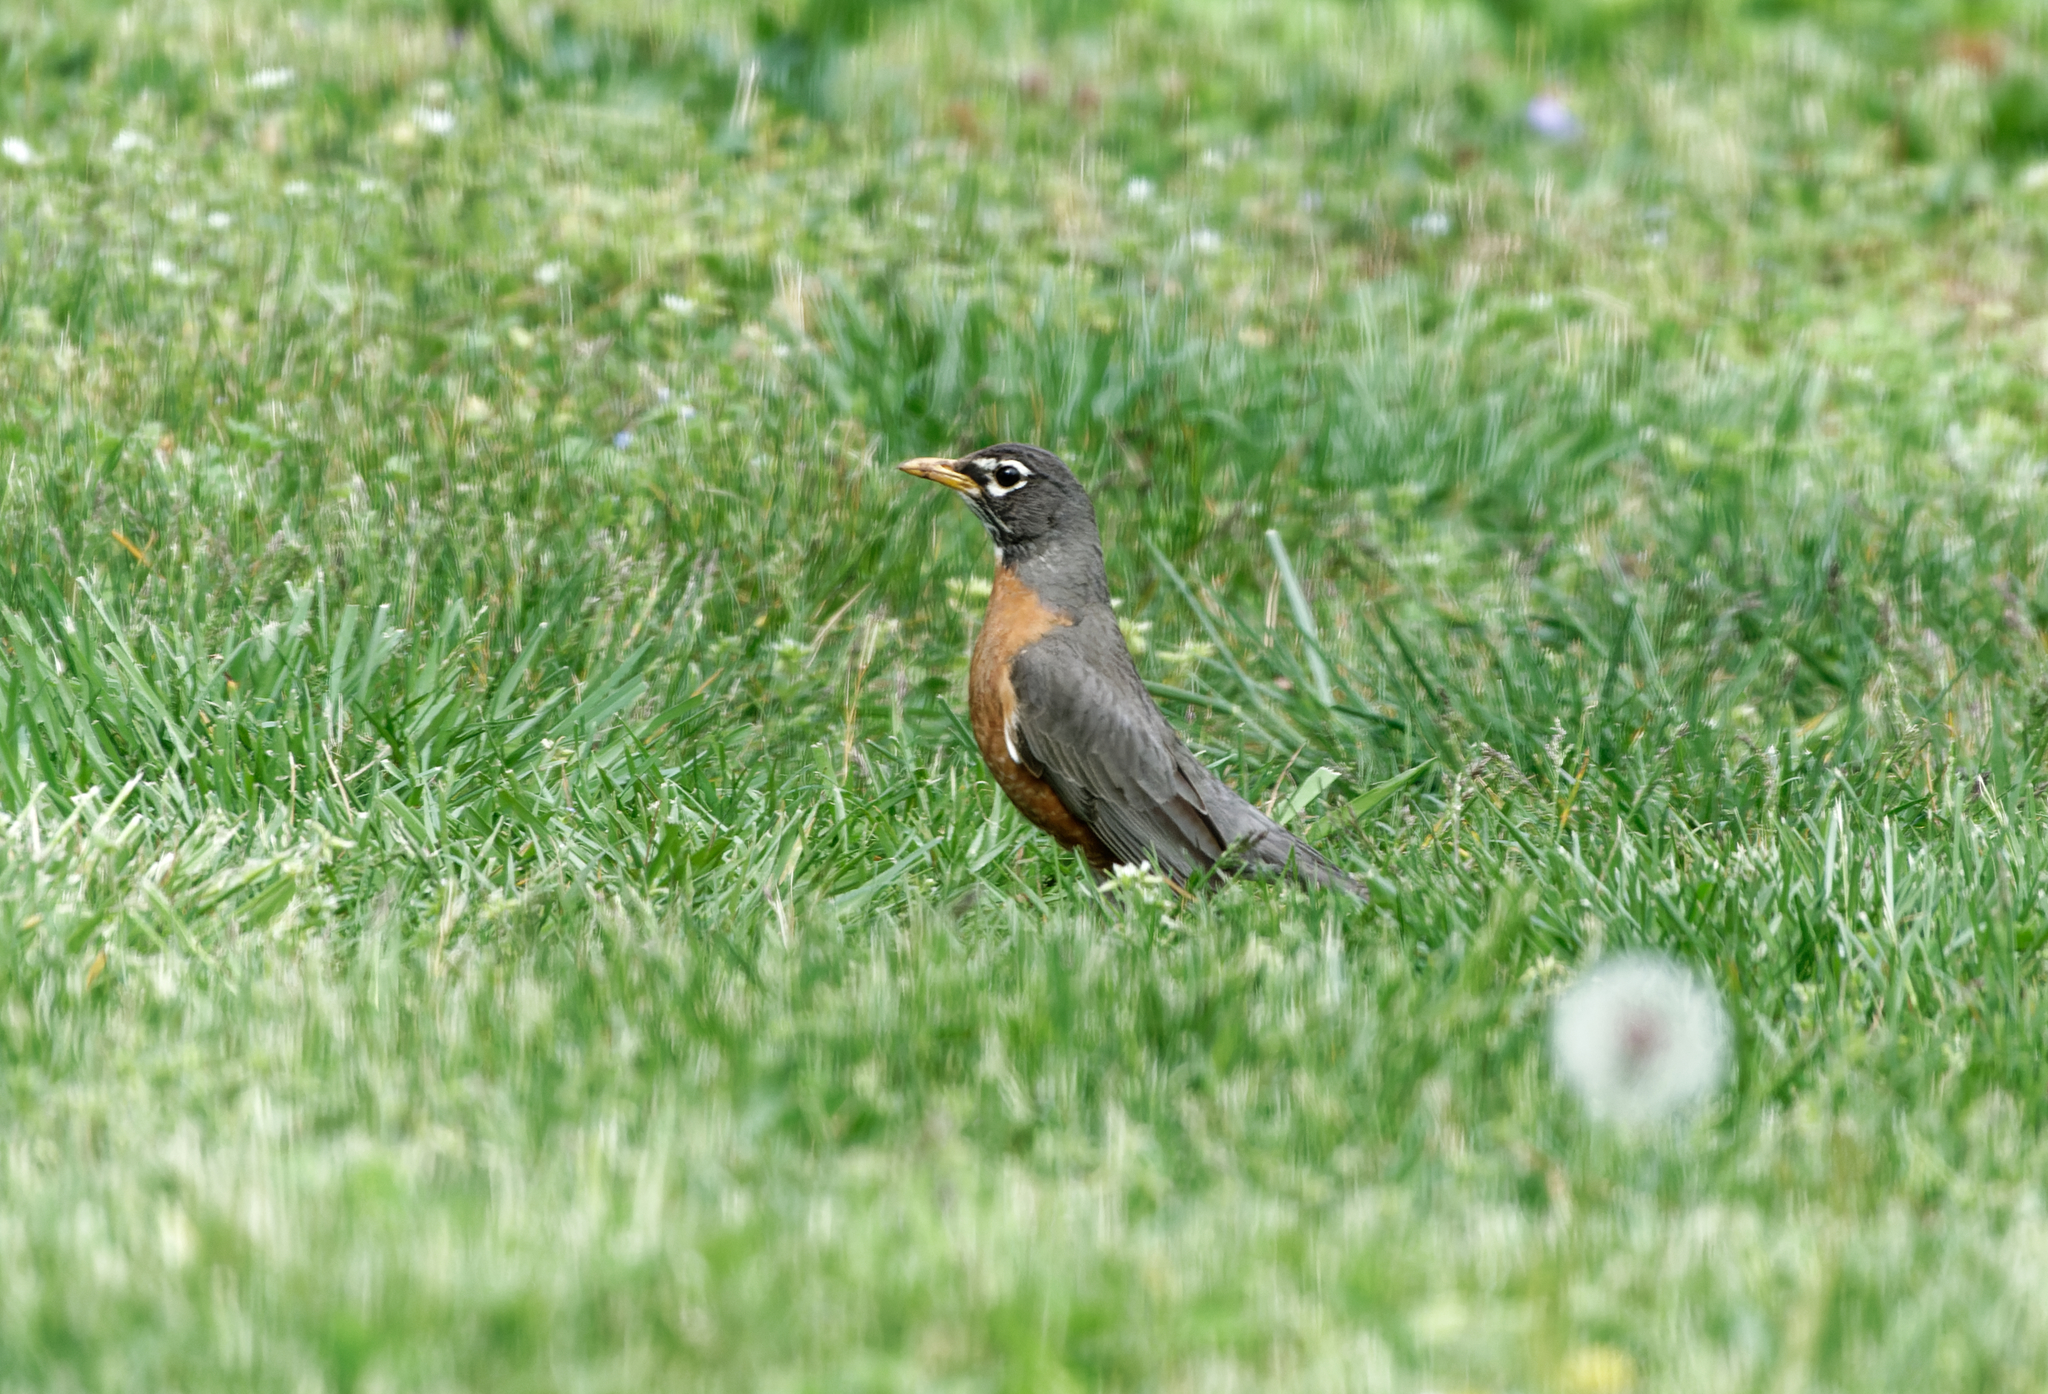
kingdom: Animalia
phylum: Chordata
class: Aves
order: Passeriformes
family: Turdidae
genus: Turdus
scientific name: Turdus migratorius
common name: American robin
